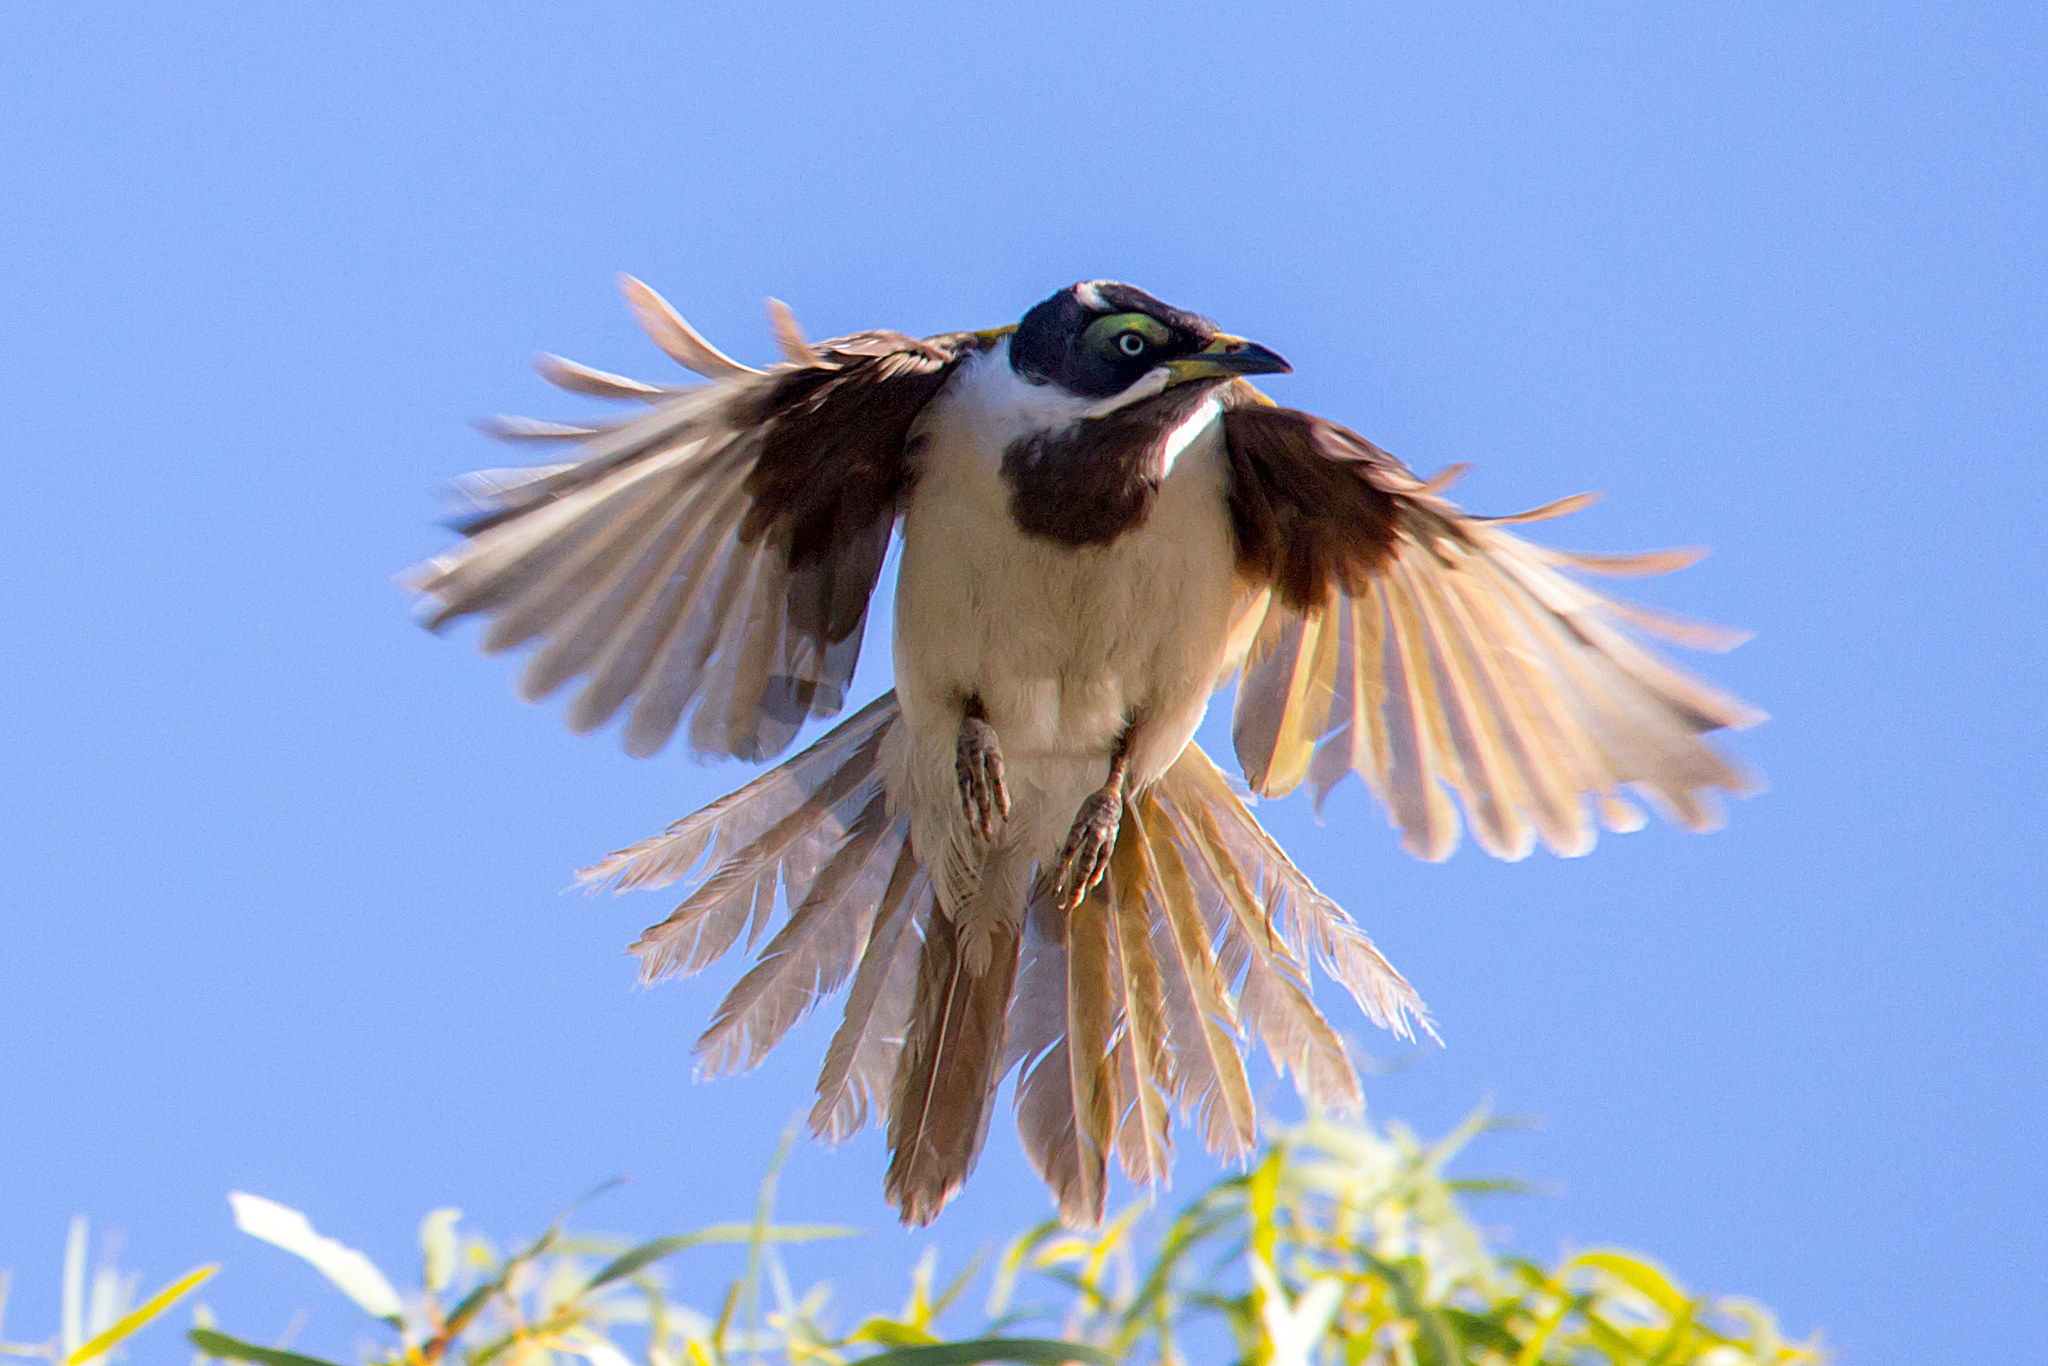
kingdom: Animalia
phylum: Chordata
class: Aves
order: Passeriformes
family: Meliphagidae
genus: Entomyzon
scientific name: Entomyzon cyanotis
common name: Blue-faced honeyeater
